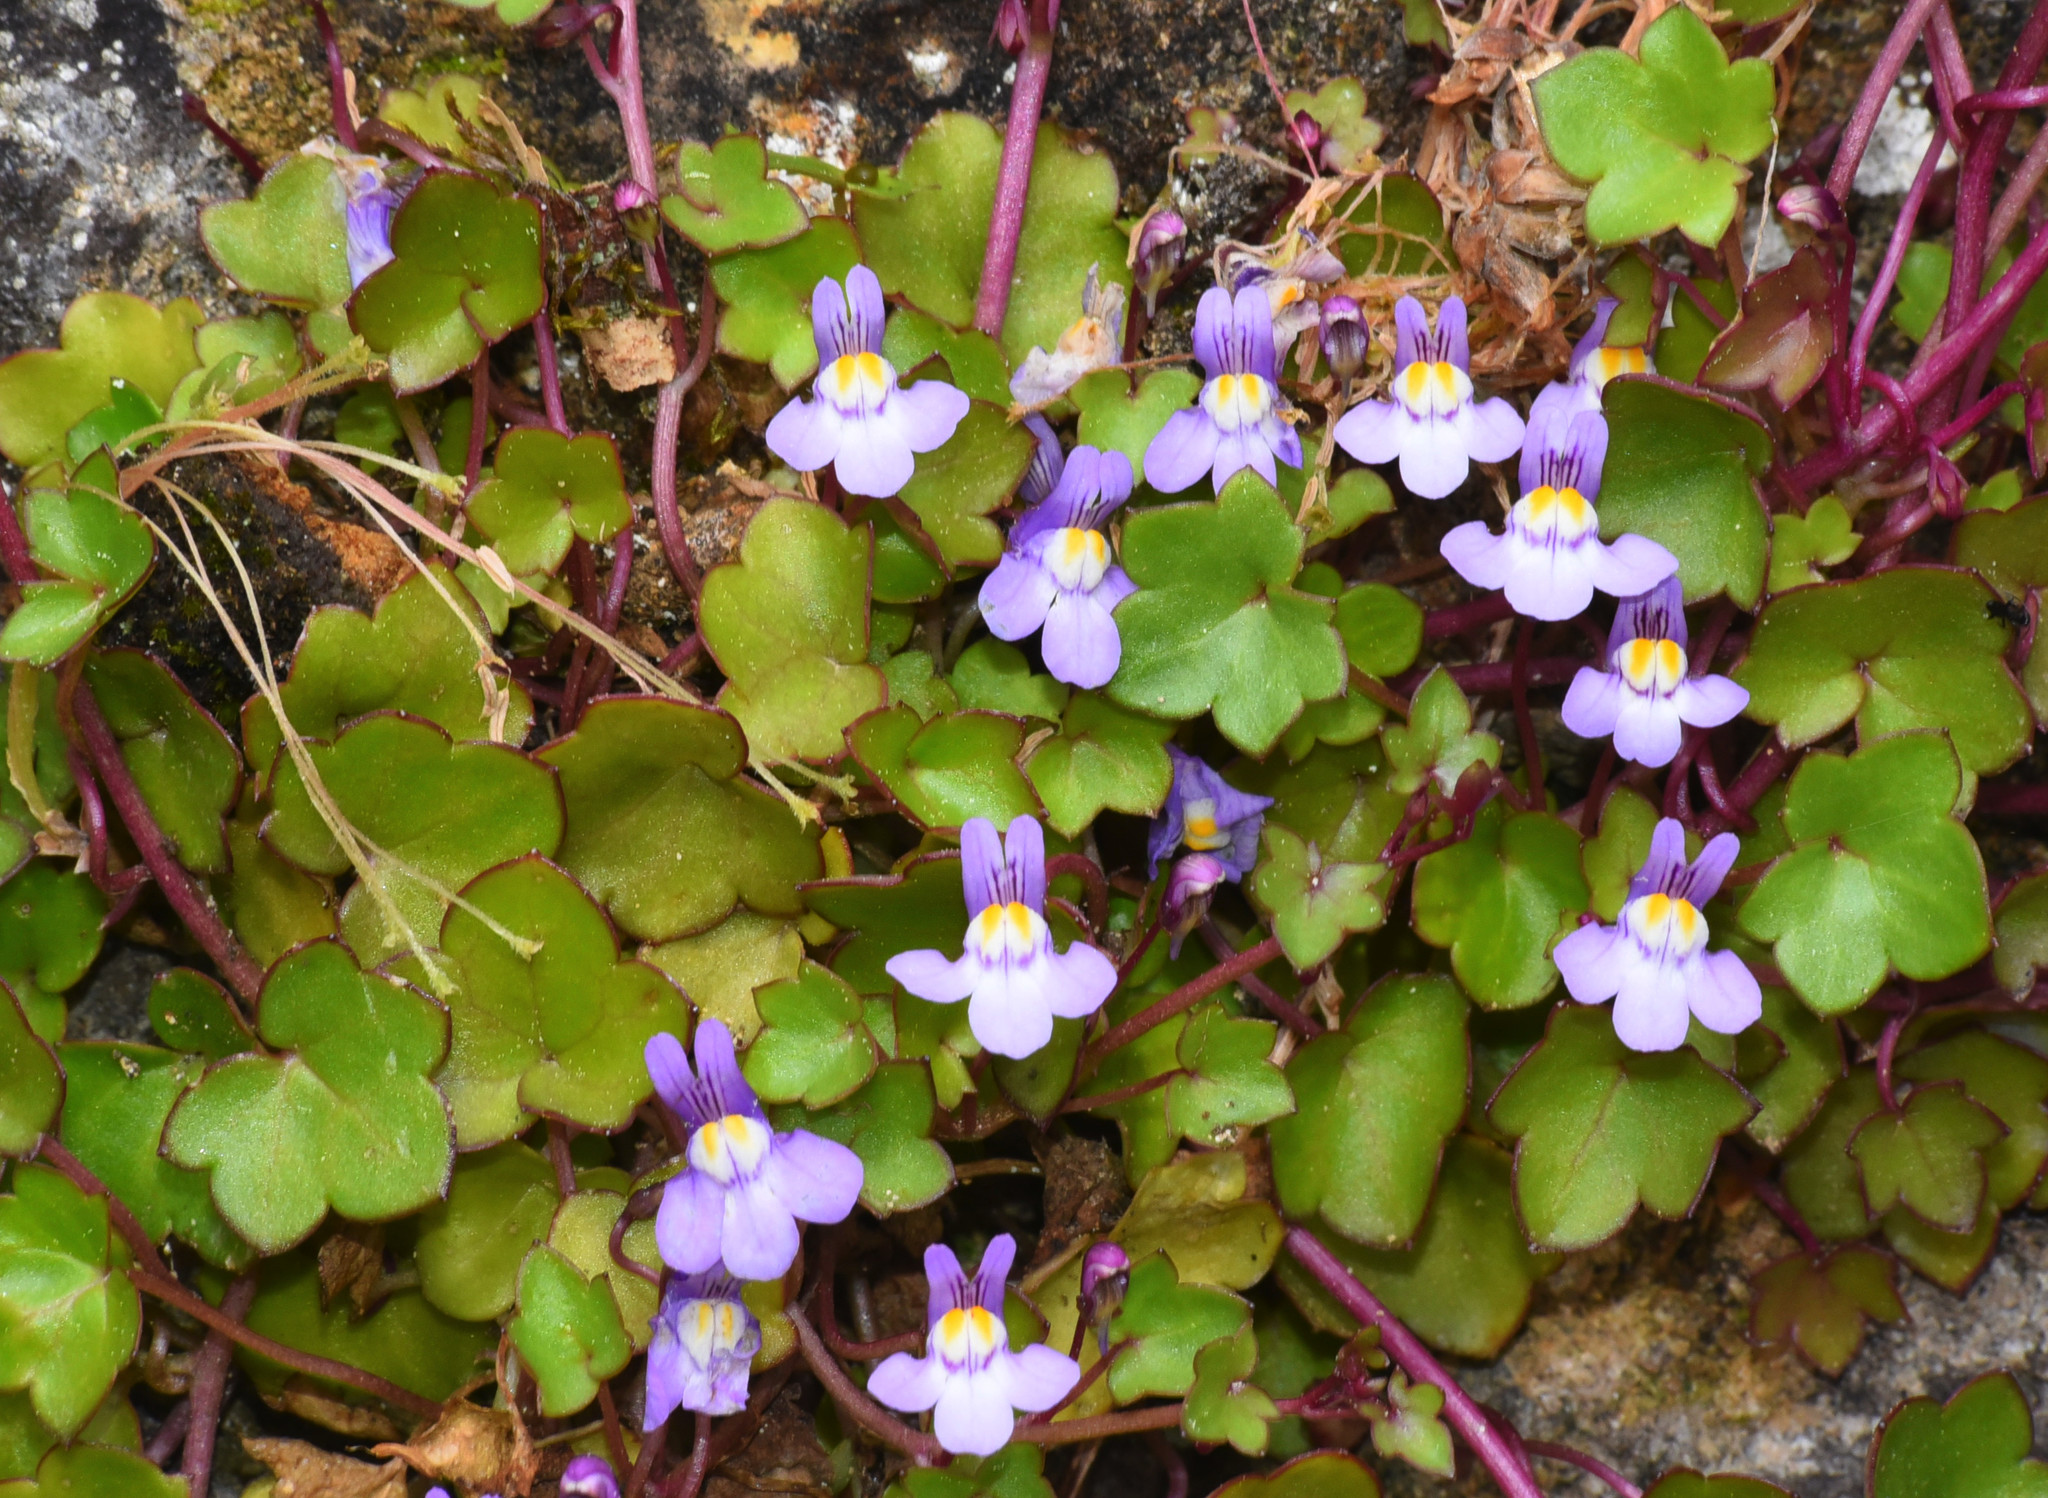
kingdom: Plantae
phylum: Tracheophyta
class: Magnoliopsida
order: Lamiales
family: Plantaginaceae
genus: Cymbalaria
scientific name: Cymbalaria muralis
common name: Ivy-leaved toadflax
